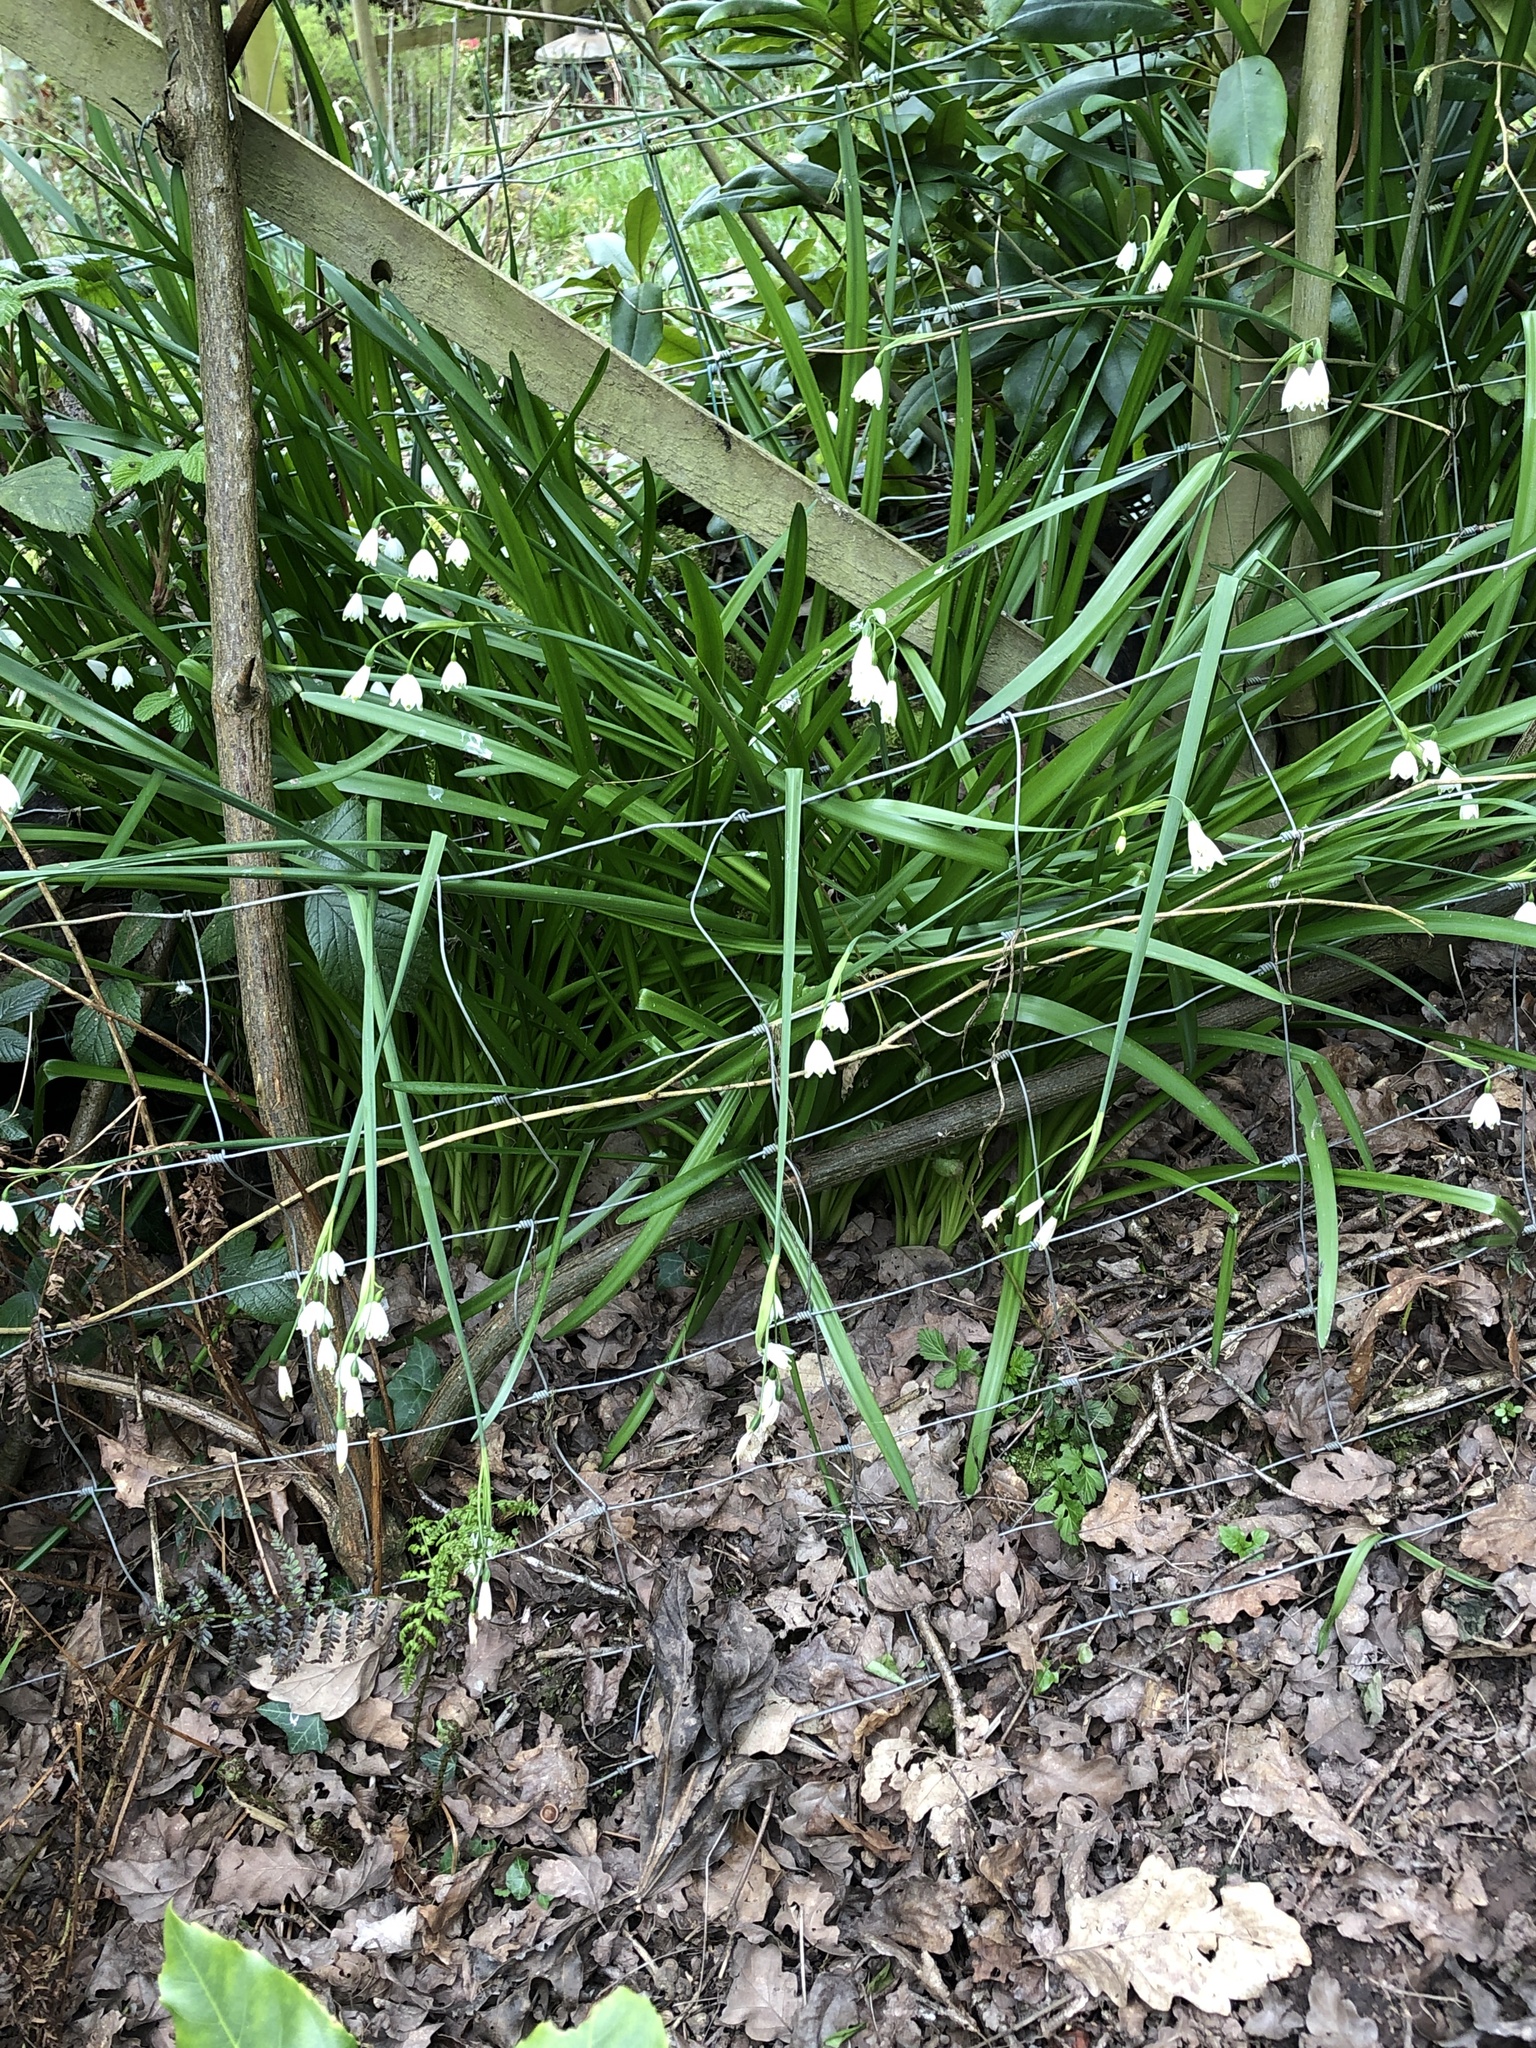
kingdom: Plantae
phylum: Tracheophyta
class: Liliopsida
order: Asparagales
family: Amaryllidaceae
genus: Leucojum
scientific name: Leucojum aestivum
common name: Summer snowflake
